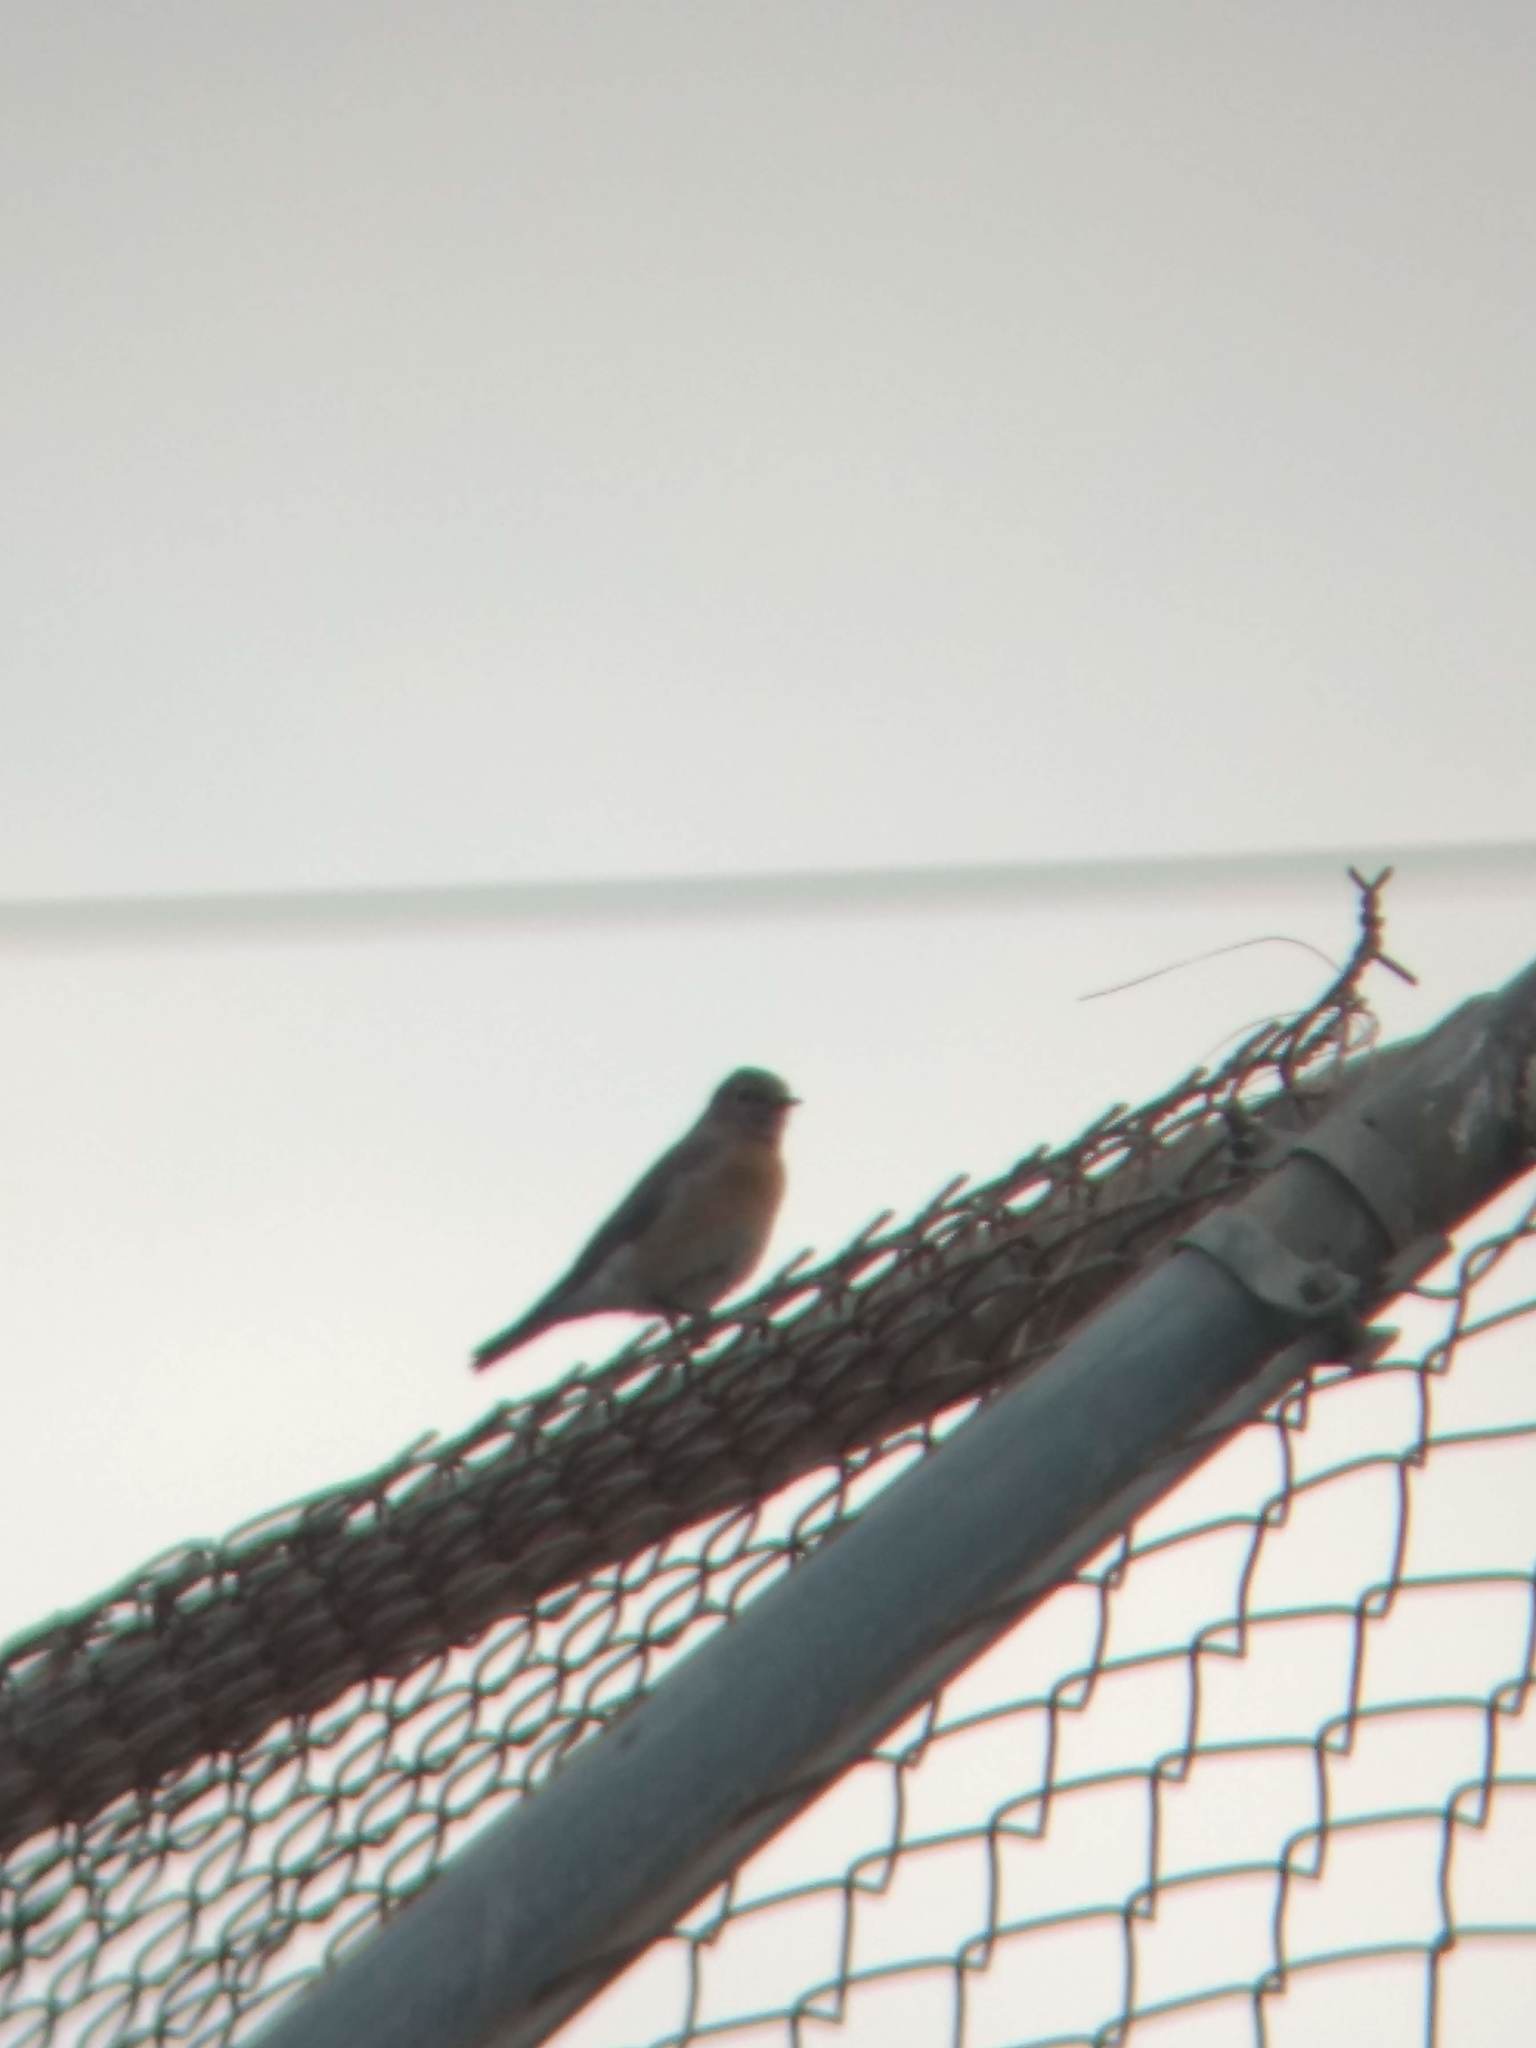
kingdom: Animalia
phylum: Chordata
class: Aves
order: Passeriformes
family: Turdidae
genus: Sialia
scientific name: Sialia mexicana
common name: Western bluebird
